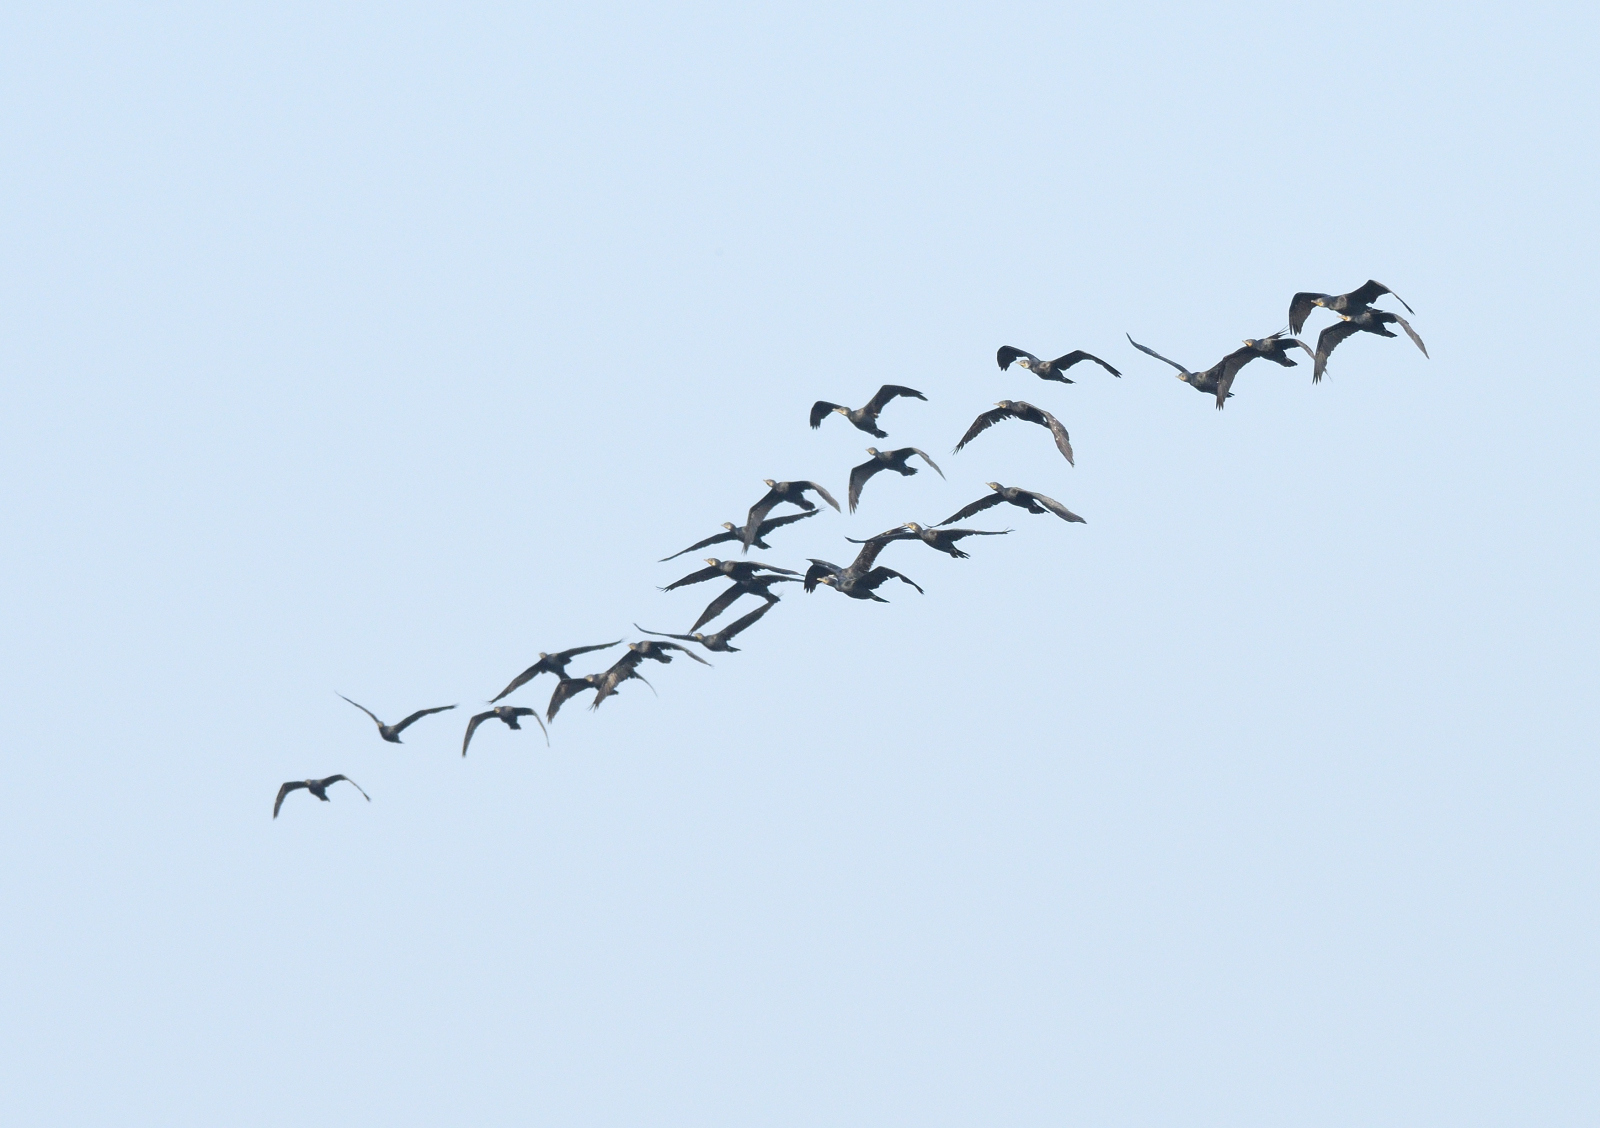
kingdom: Animalia
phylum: Chordata
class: Aves
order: Suliformes
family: Phalacrocoracidae
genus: Phalacrocorax
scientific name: Phalacrocorax fuscicollis
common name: Indian cormorant
